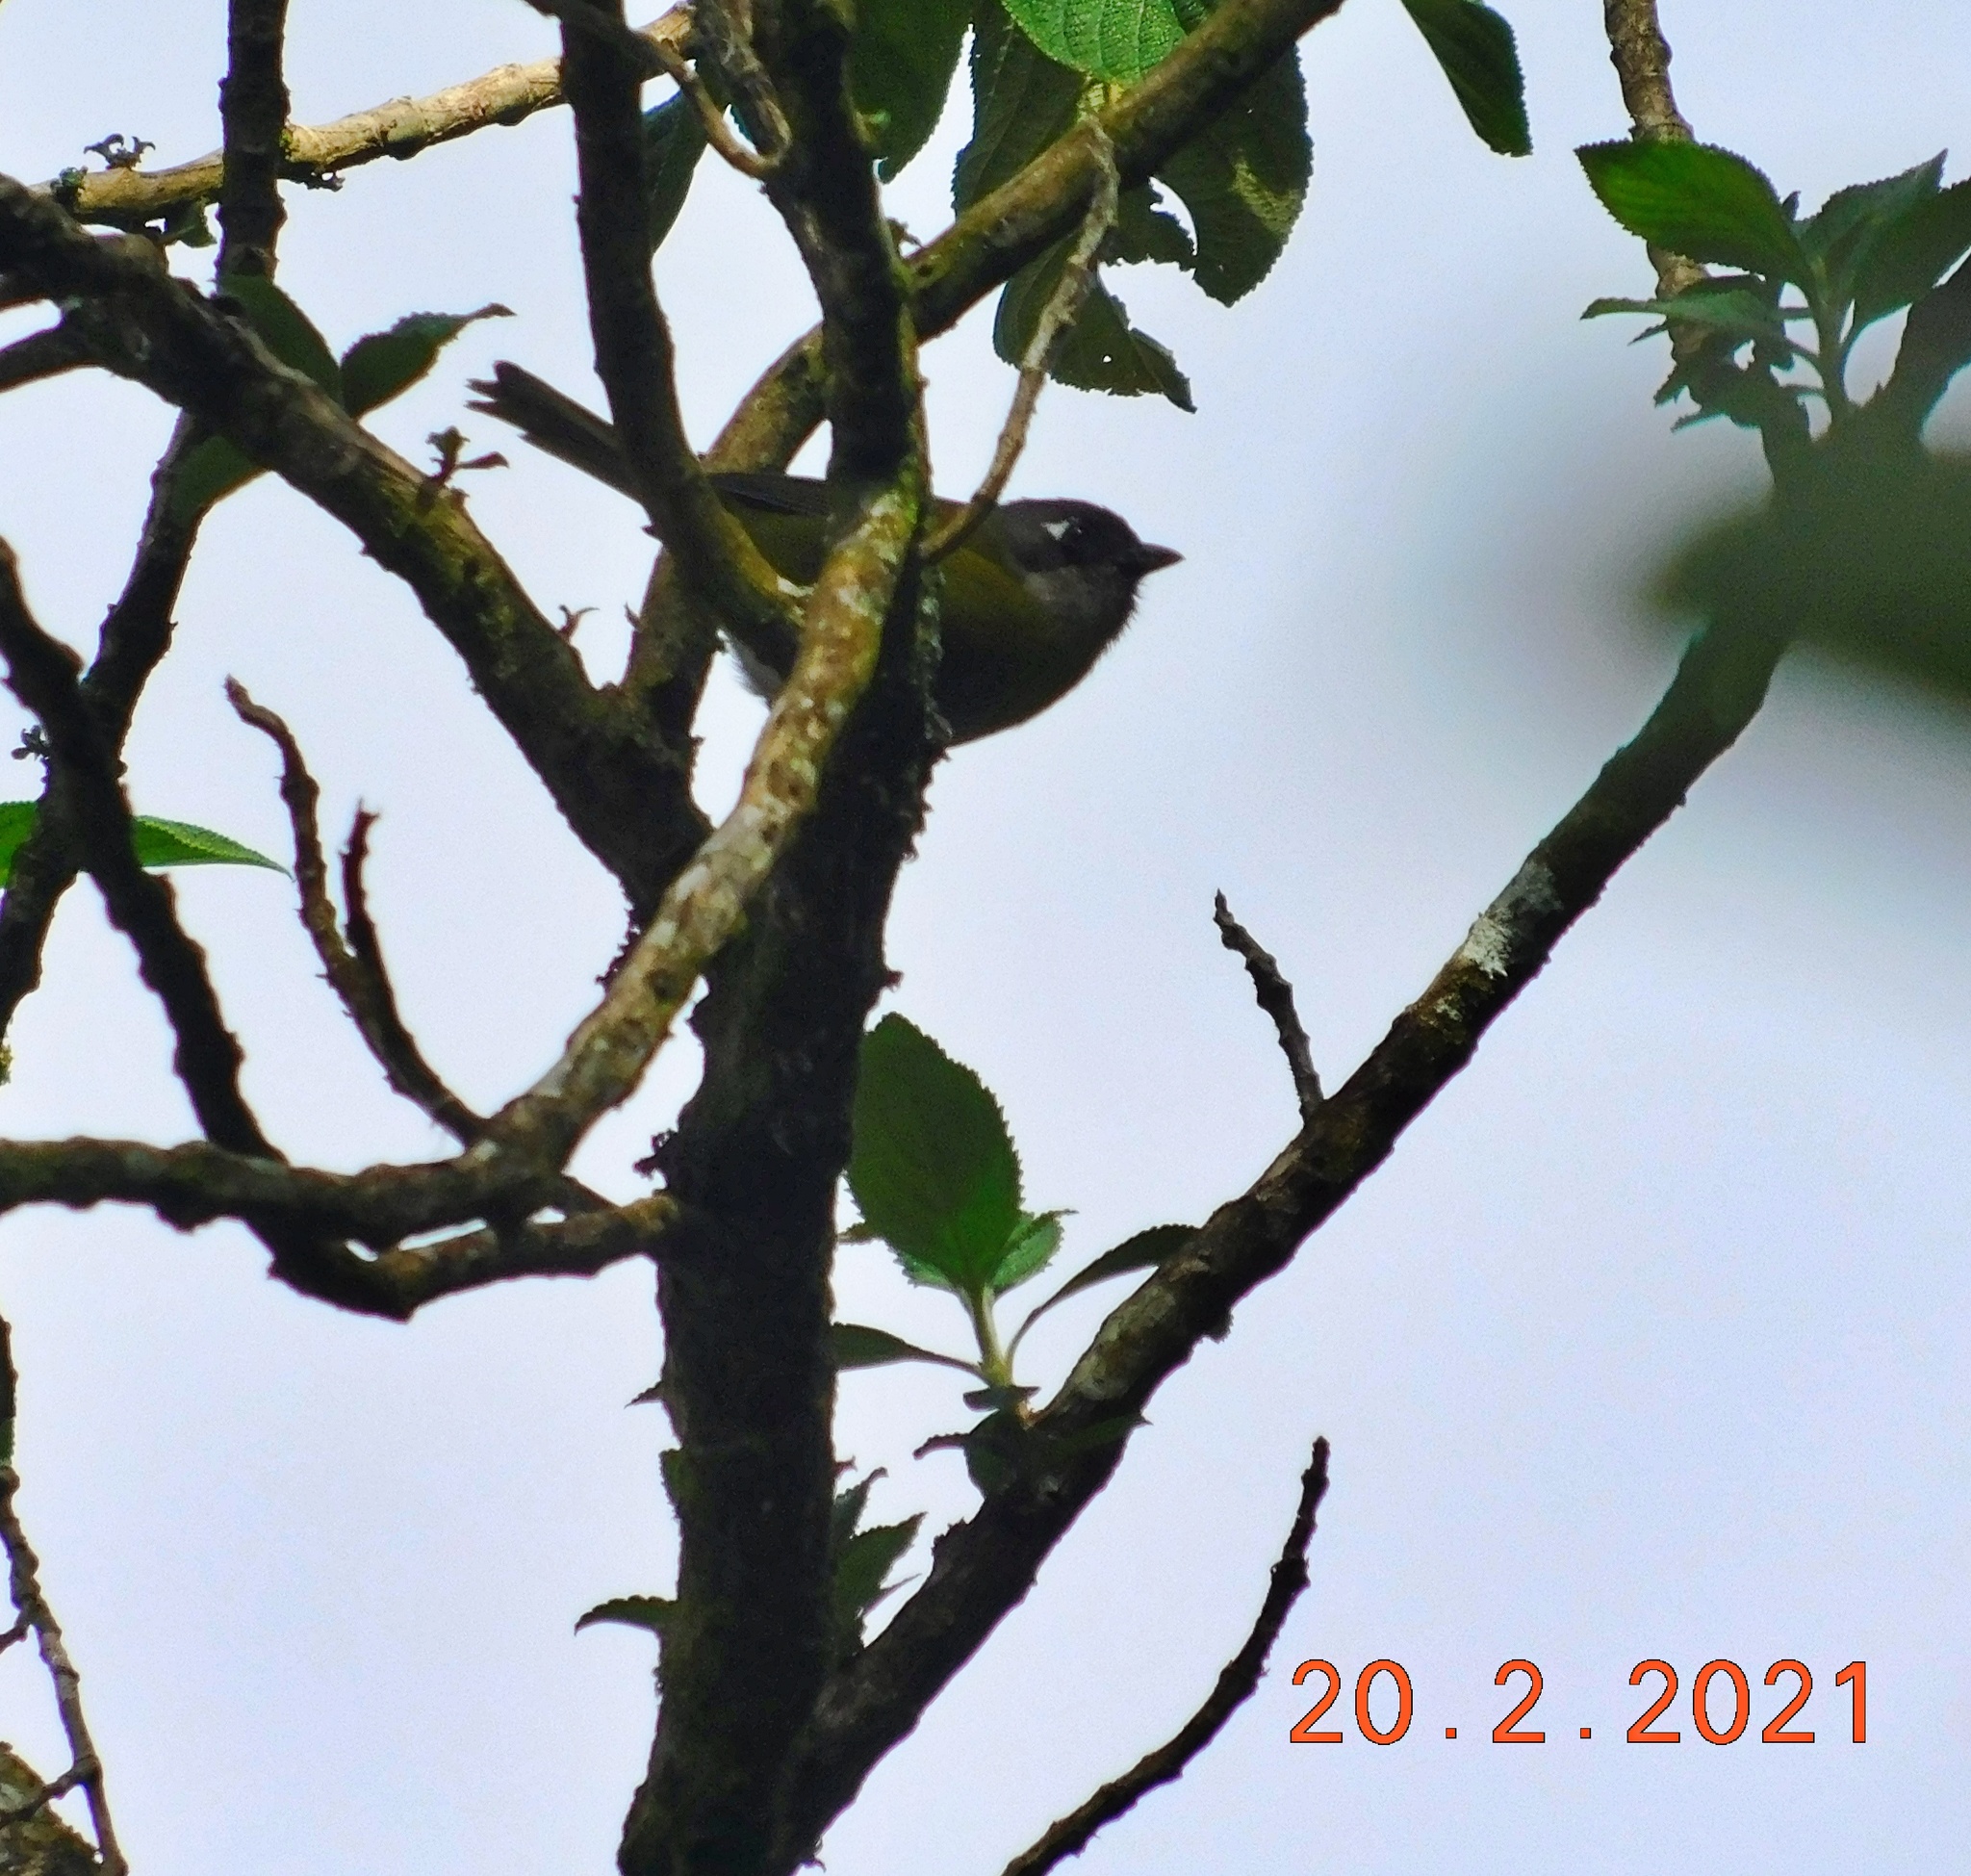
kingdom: Animalia
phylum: Chordata
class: Aves
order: Passeriformes
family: Passerellidae
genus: Chlorospingus
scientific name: Chlorospingus flavopectus
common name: Common chlorospingus
